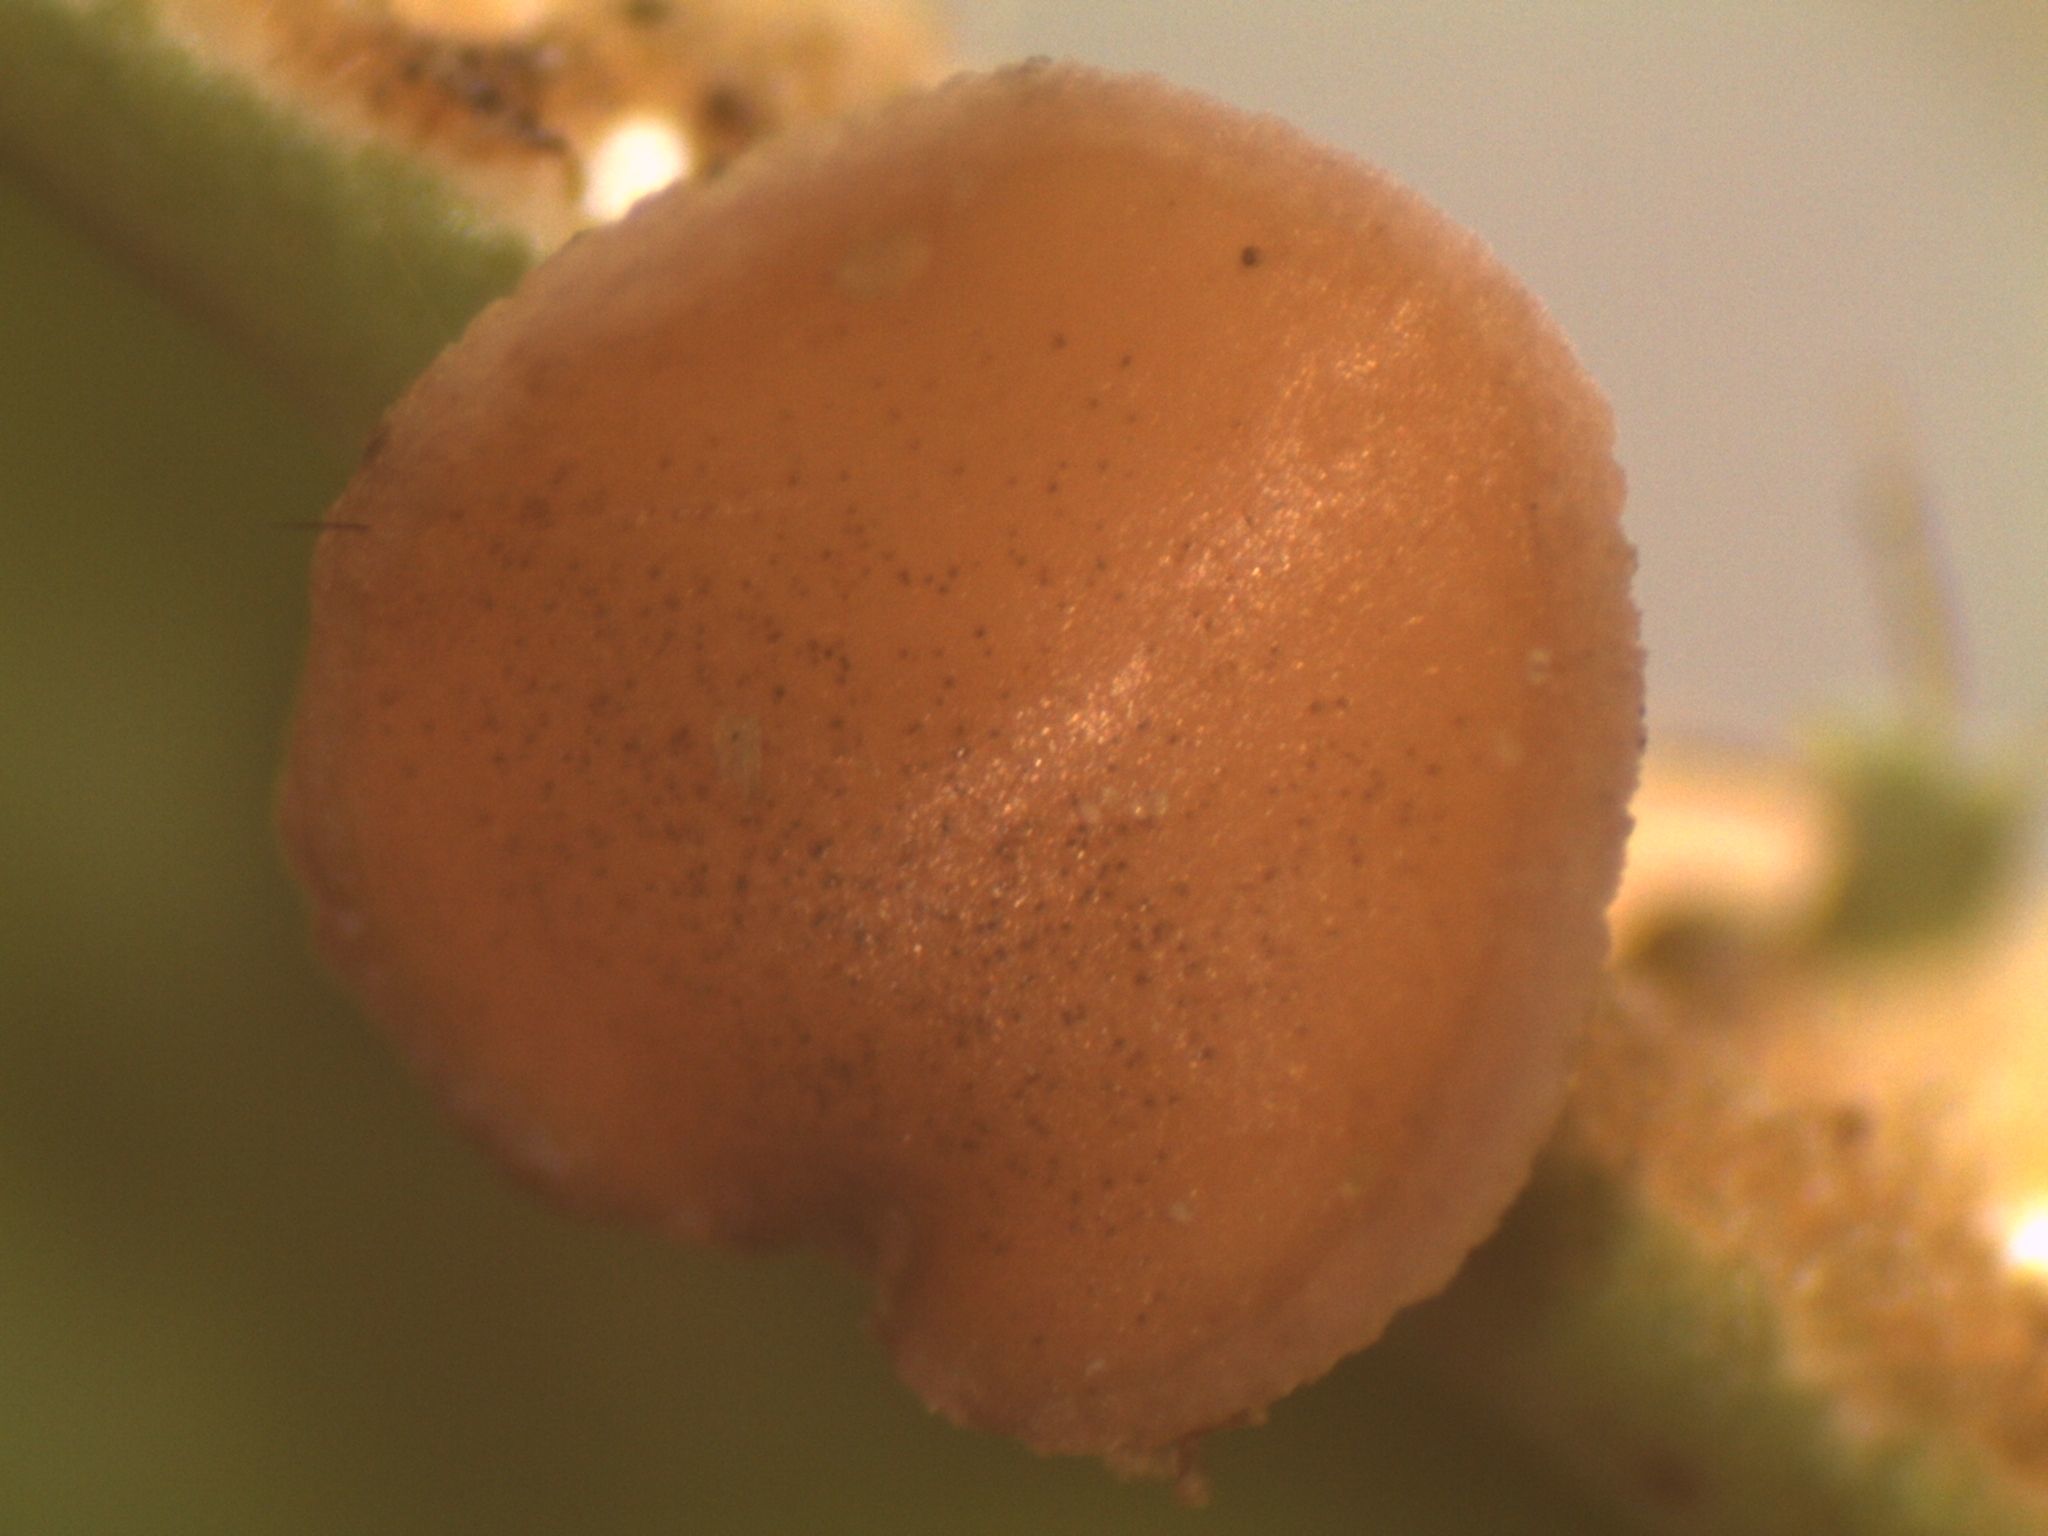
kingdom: Fungi
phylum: Ascomycota
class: Lecanoromycetes
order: Peltigerales
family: Lobariaceae
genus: Pseudocyphellaria
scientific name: Pseudocyphellaria rufovirescens
